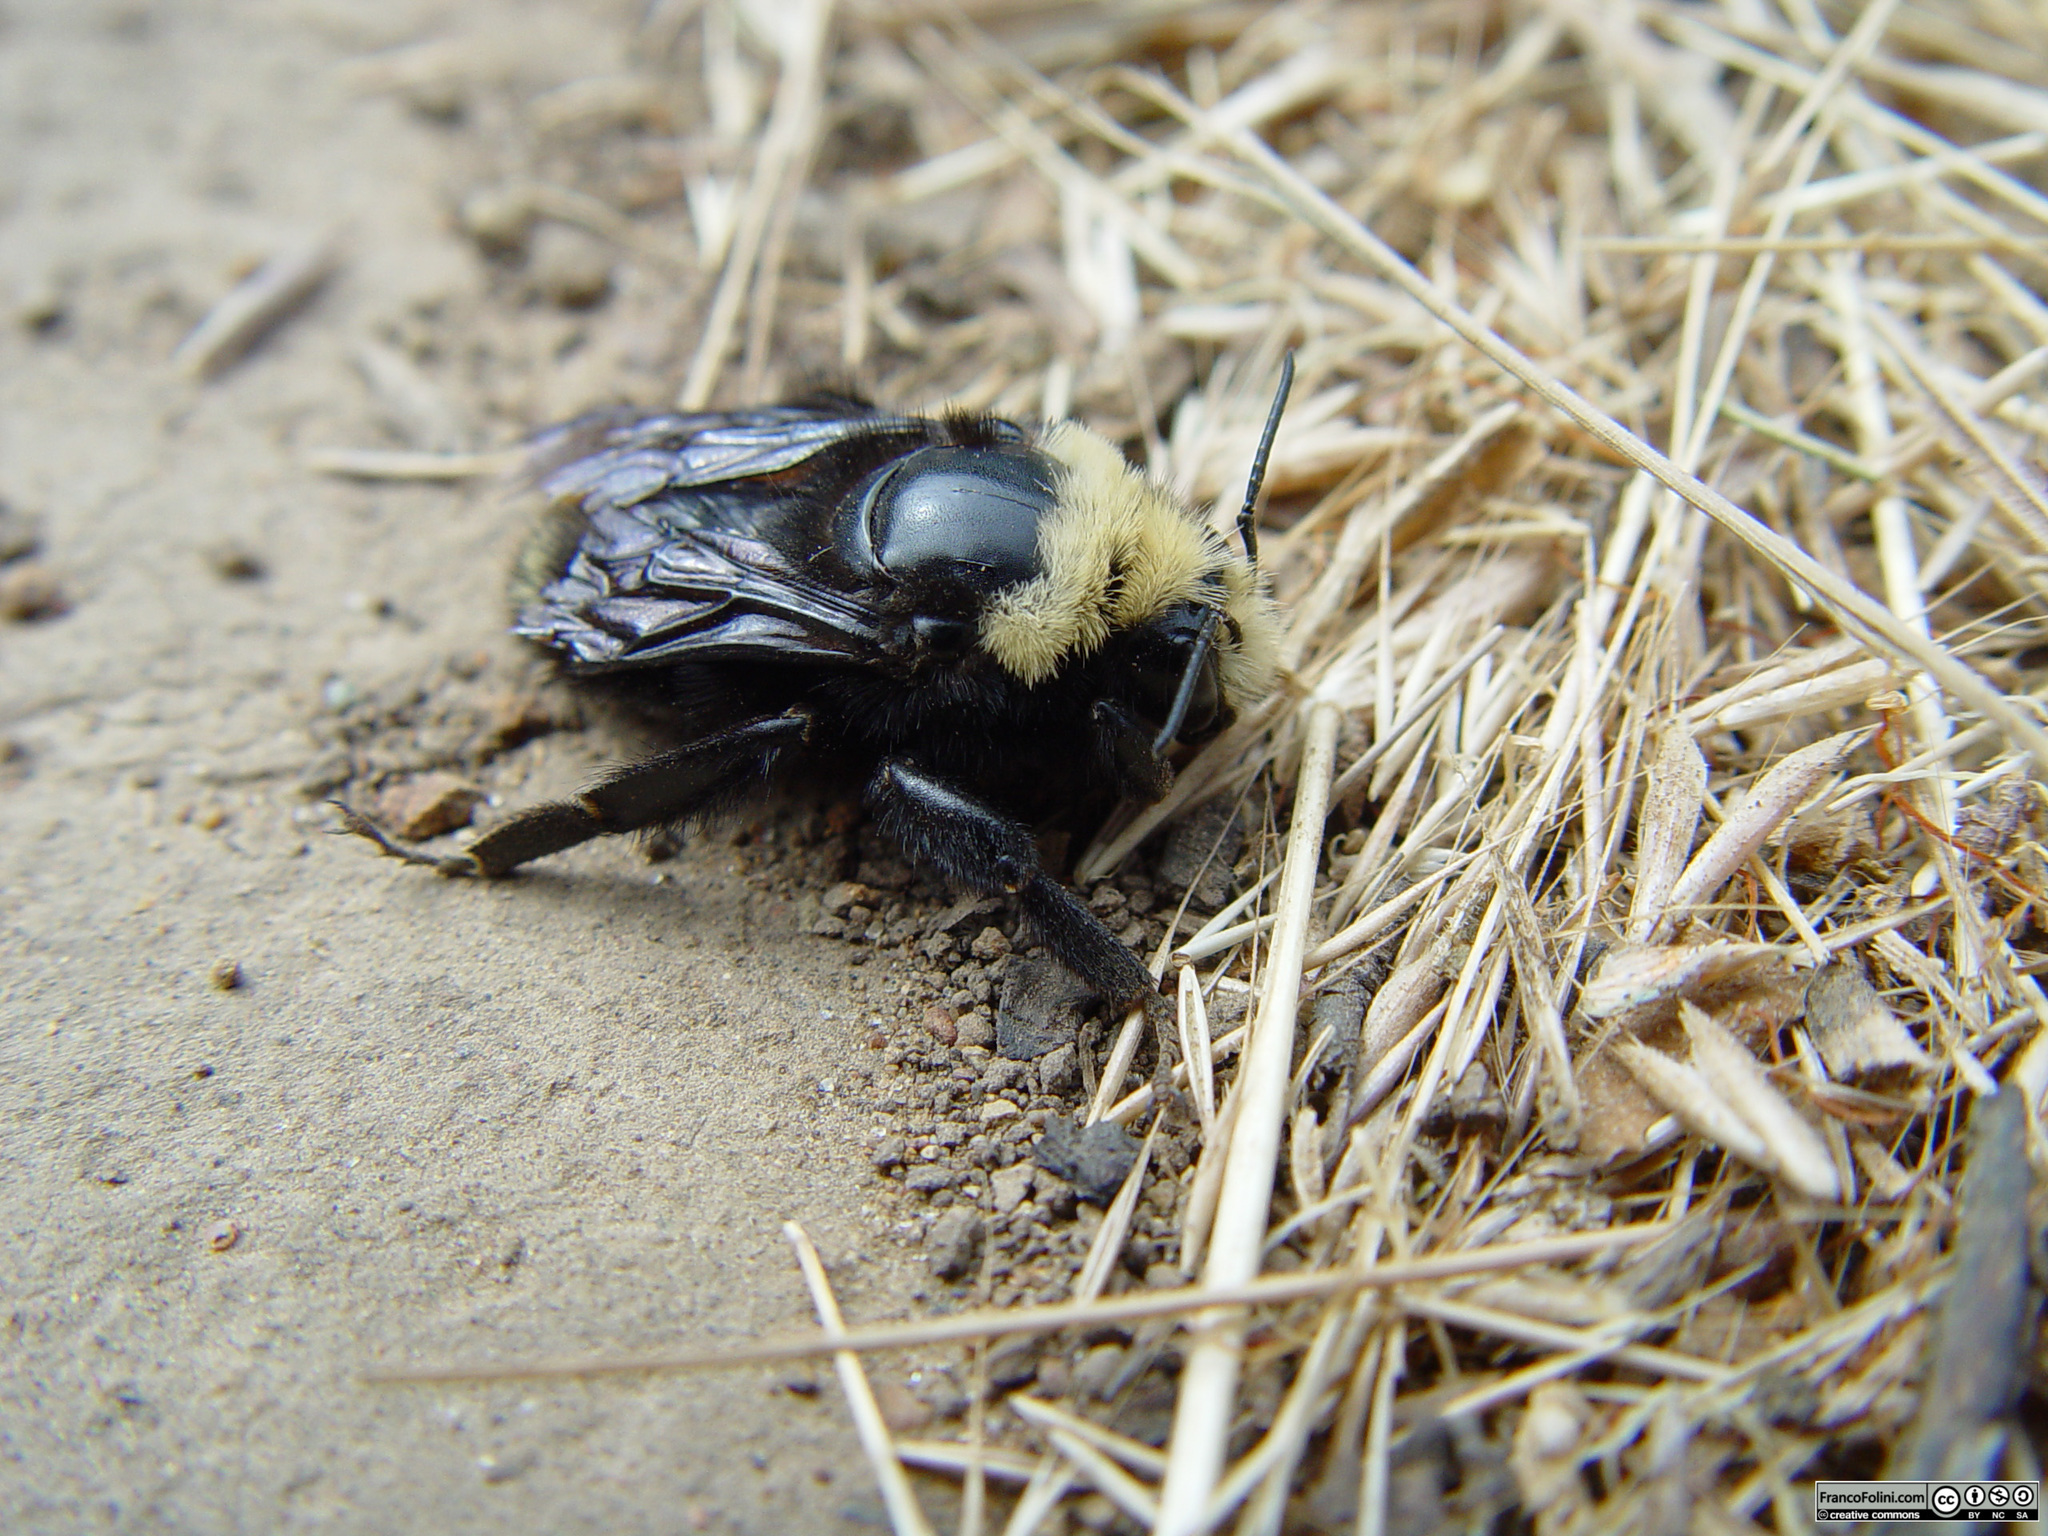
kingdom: Animalia
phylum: Arthropoda
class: Insecta
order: Hymenoptera
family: Apidae
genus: Bombus
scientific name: Bombus vosnesenskii
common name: Vosnesensky bumble bee
